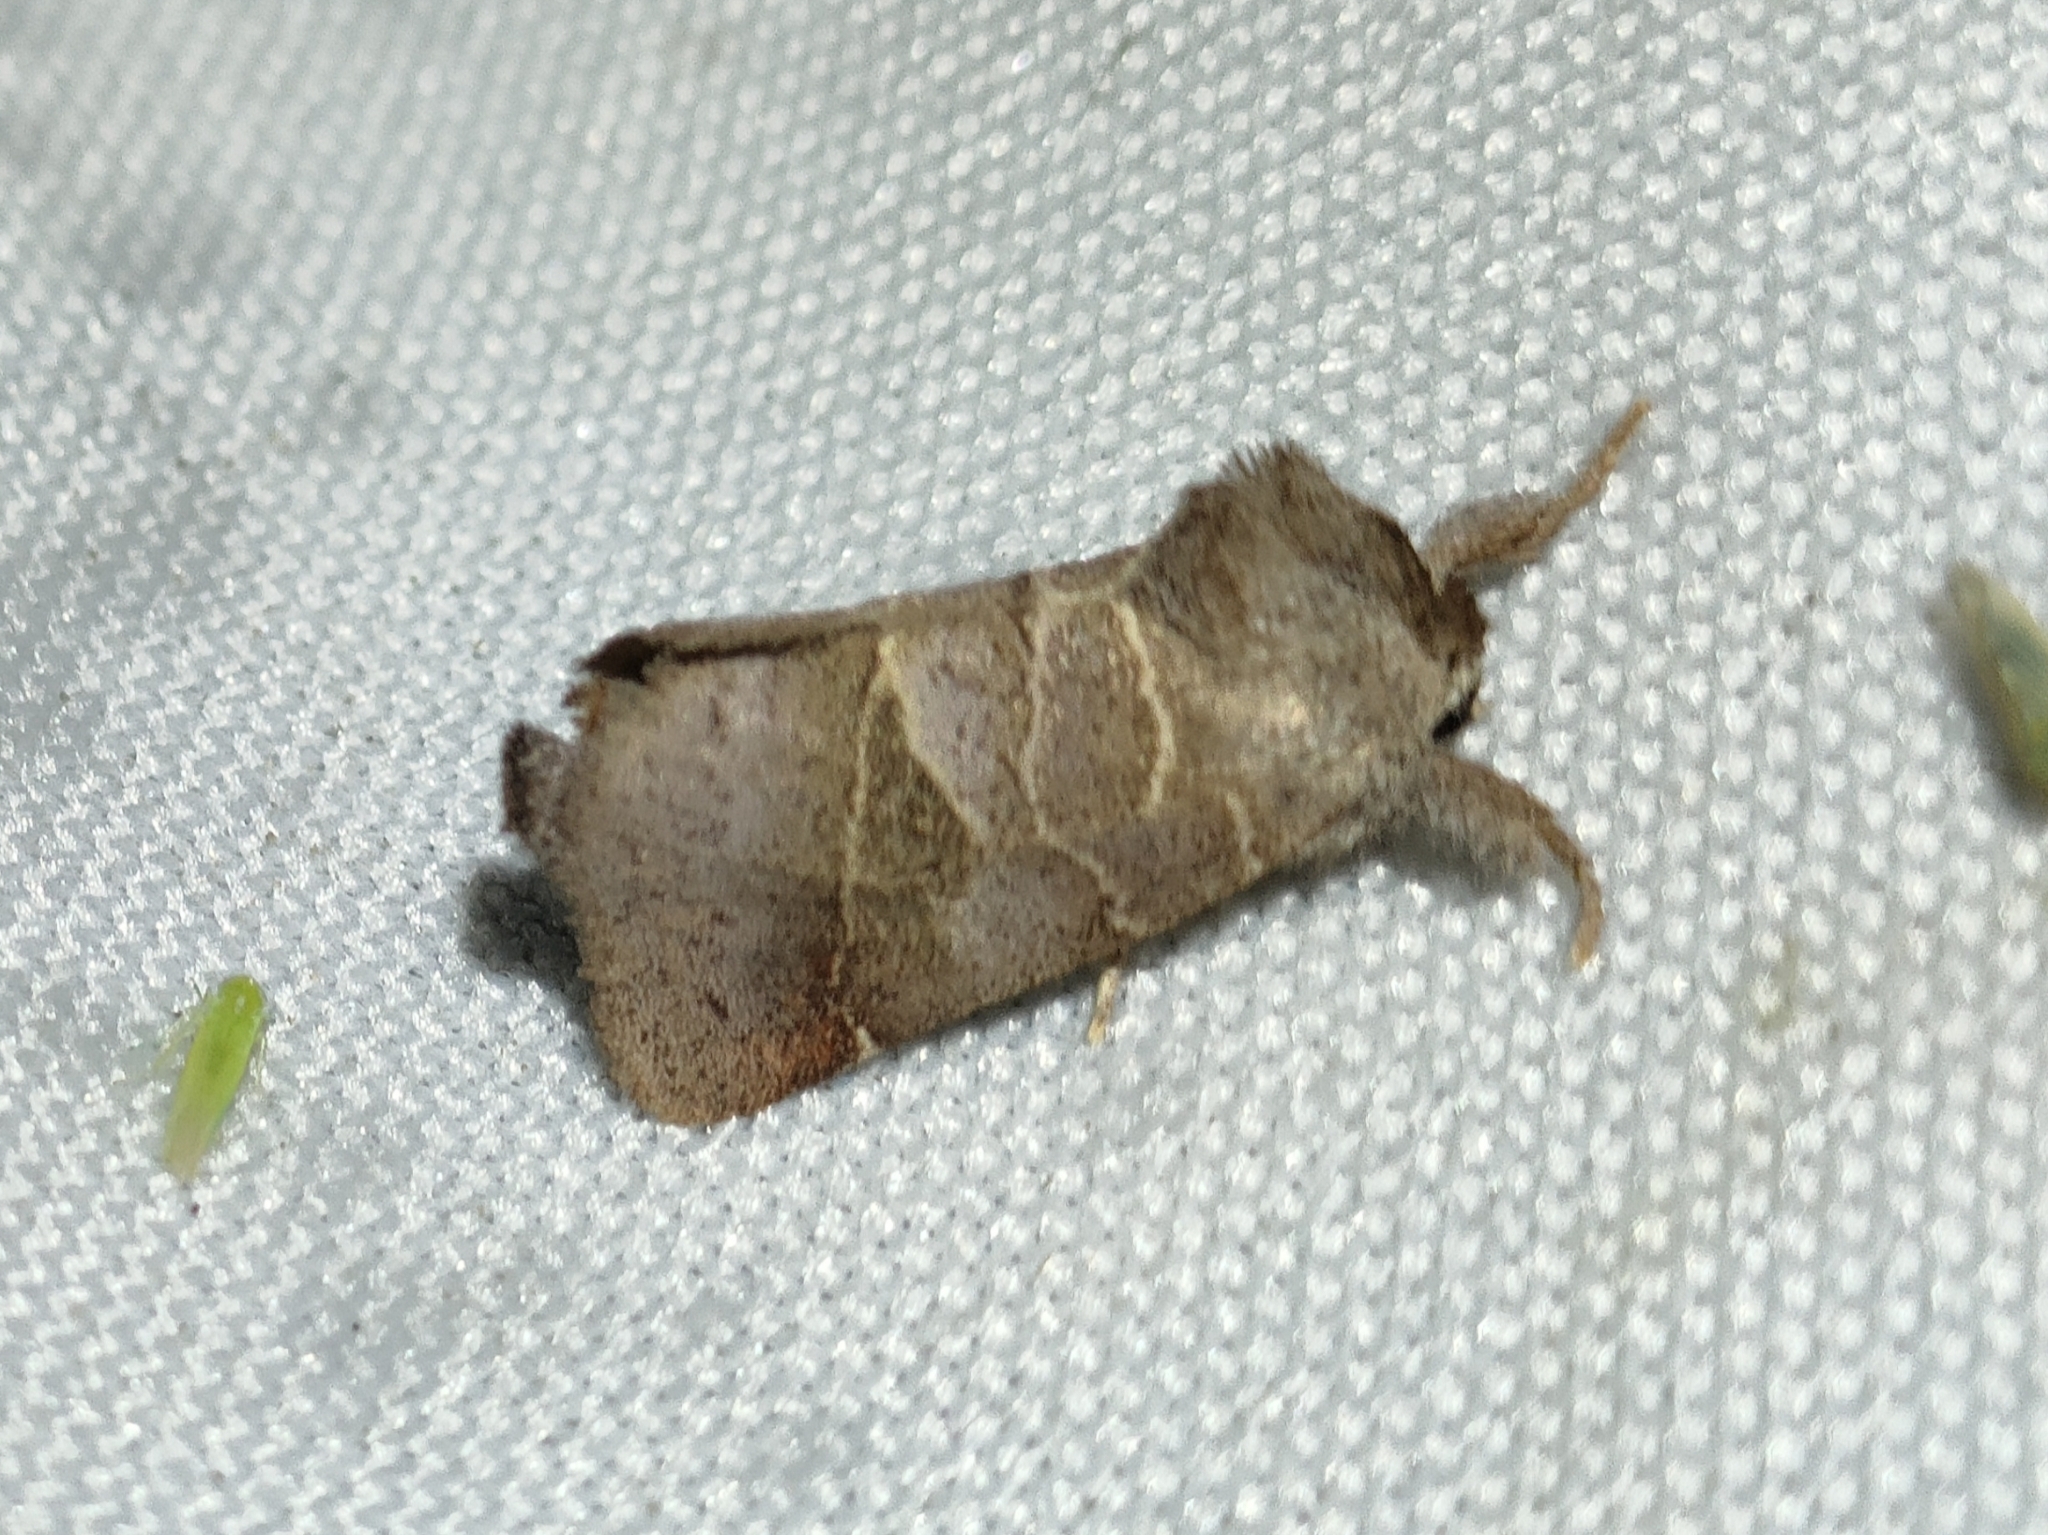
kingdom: Animalia
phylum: Arthropoda
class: Insecta
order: Lepidoptera
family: Notodontidae
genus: Clostera
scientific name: Clostera pigra
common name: Small chocolate-tip
